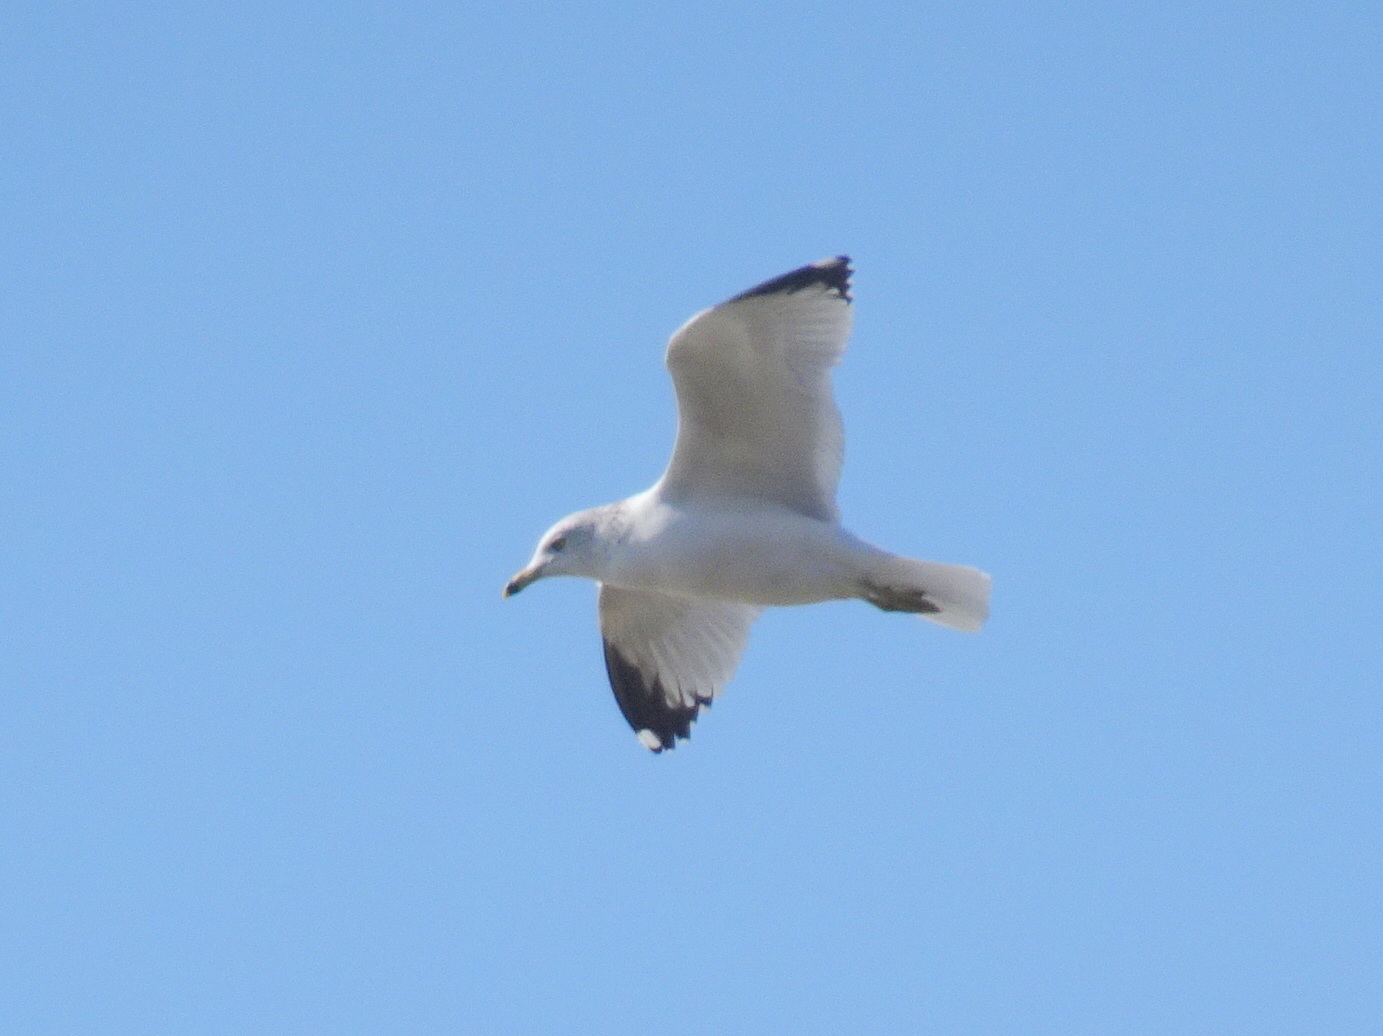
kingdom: Animalia
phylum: Chordata
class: Aves
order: Charadriiformes
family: Laridae
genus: Larus
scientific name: Larus delawarensis
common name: Ring-billed gull
